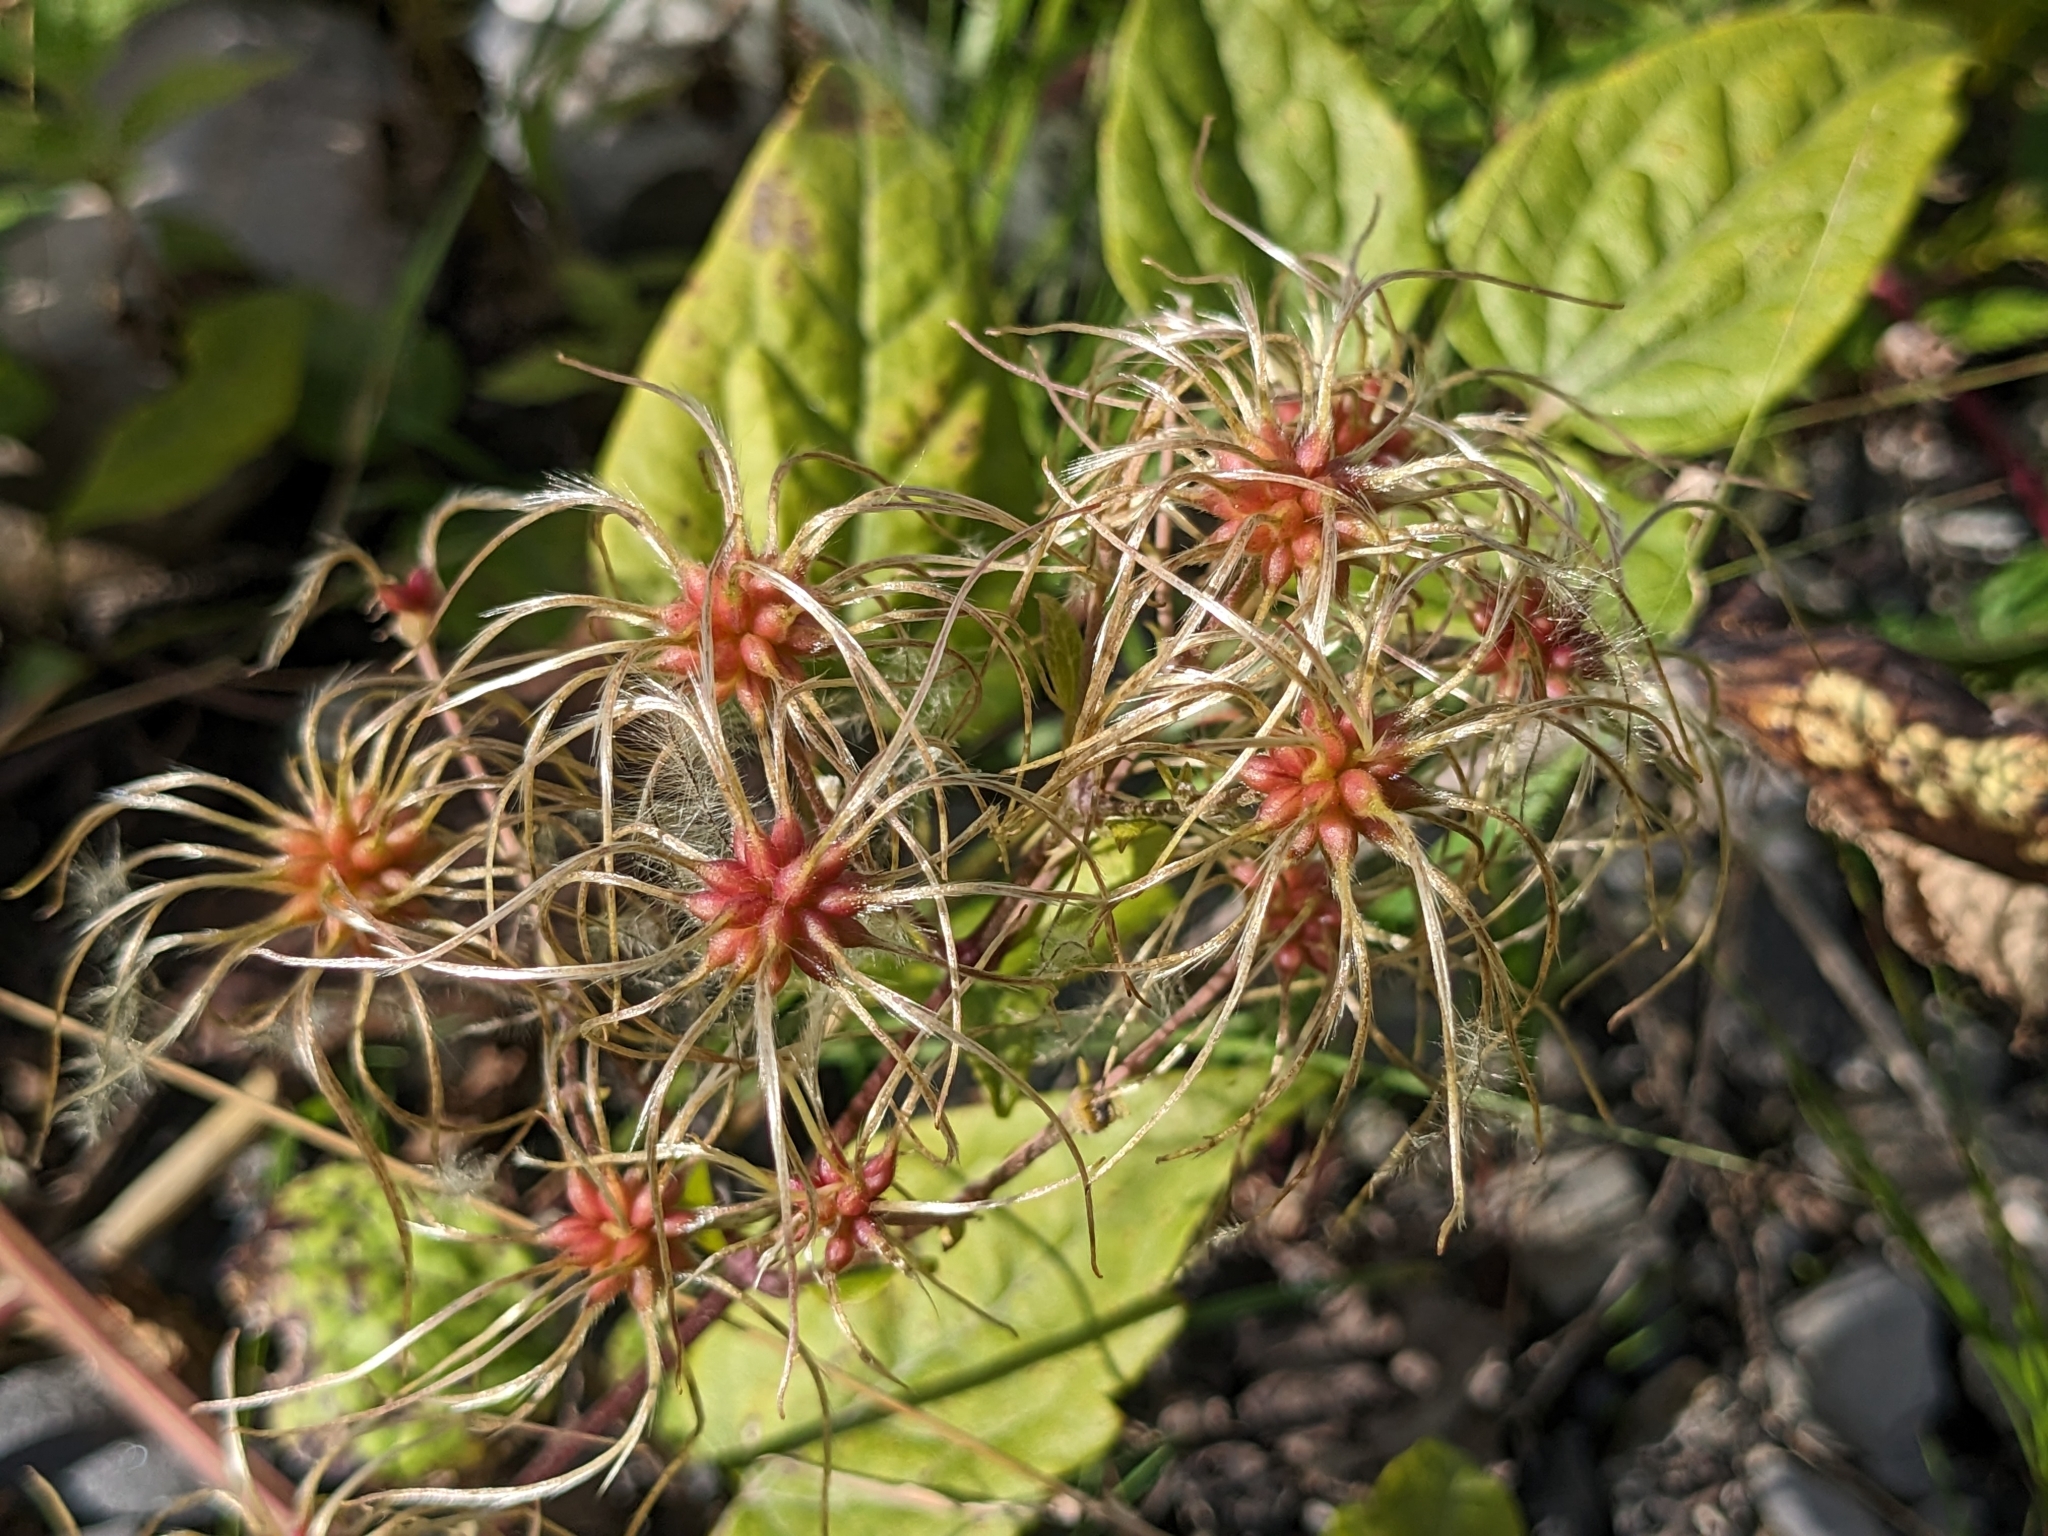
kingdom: Plantae
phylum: Tracheophyta
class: Magnoliopsida
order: Ranunculales
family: Ranunculaceae
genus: Clematis
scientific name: Clematis vitalba
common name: Evergreen clematis
